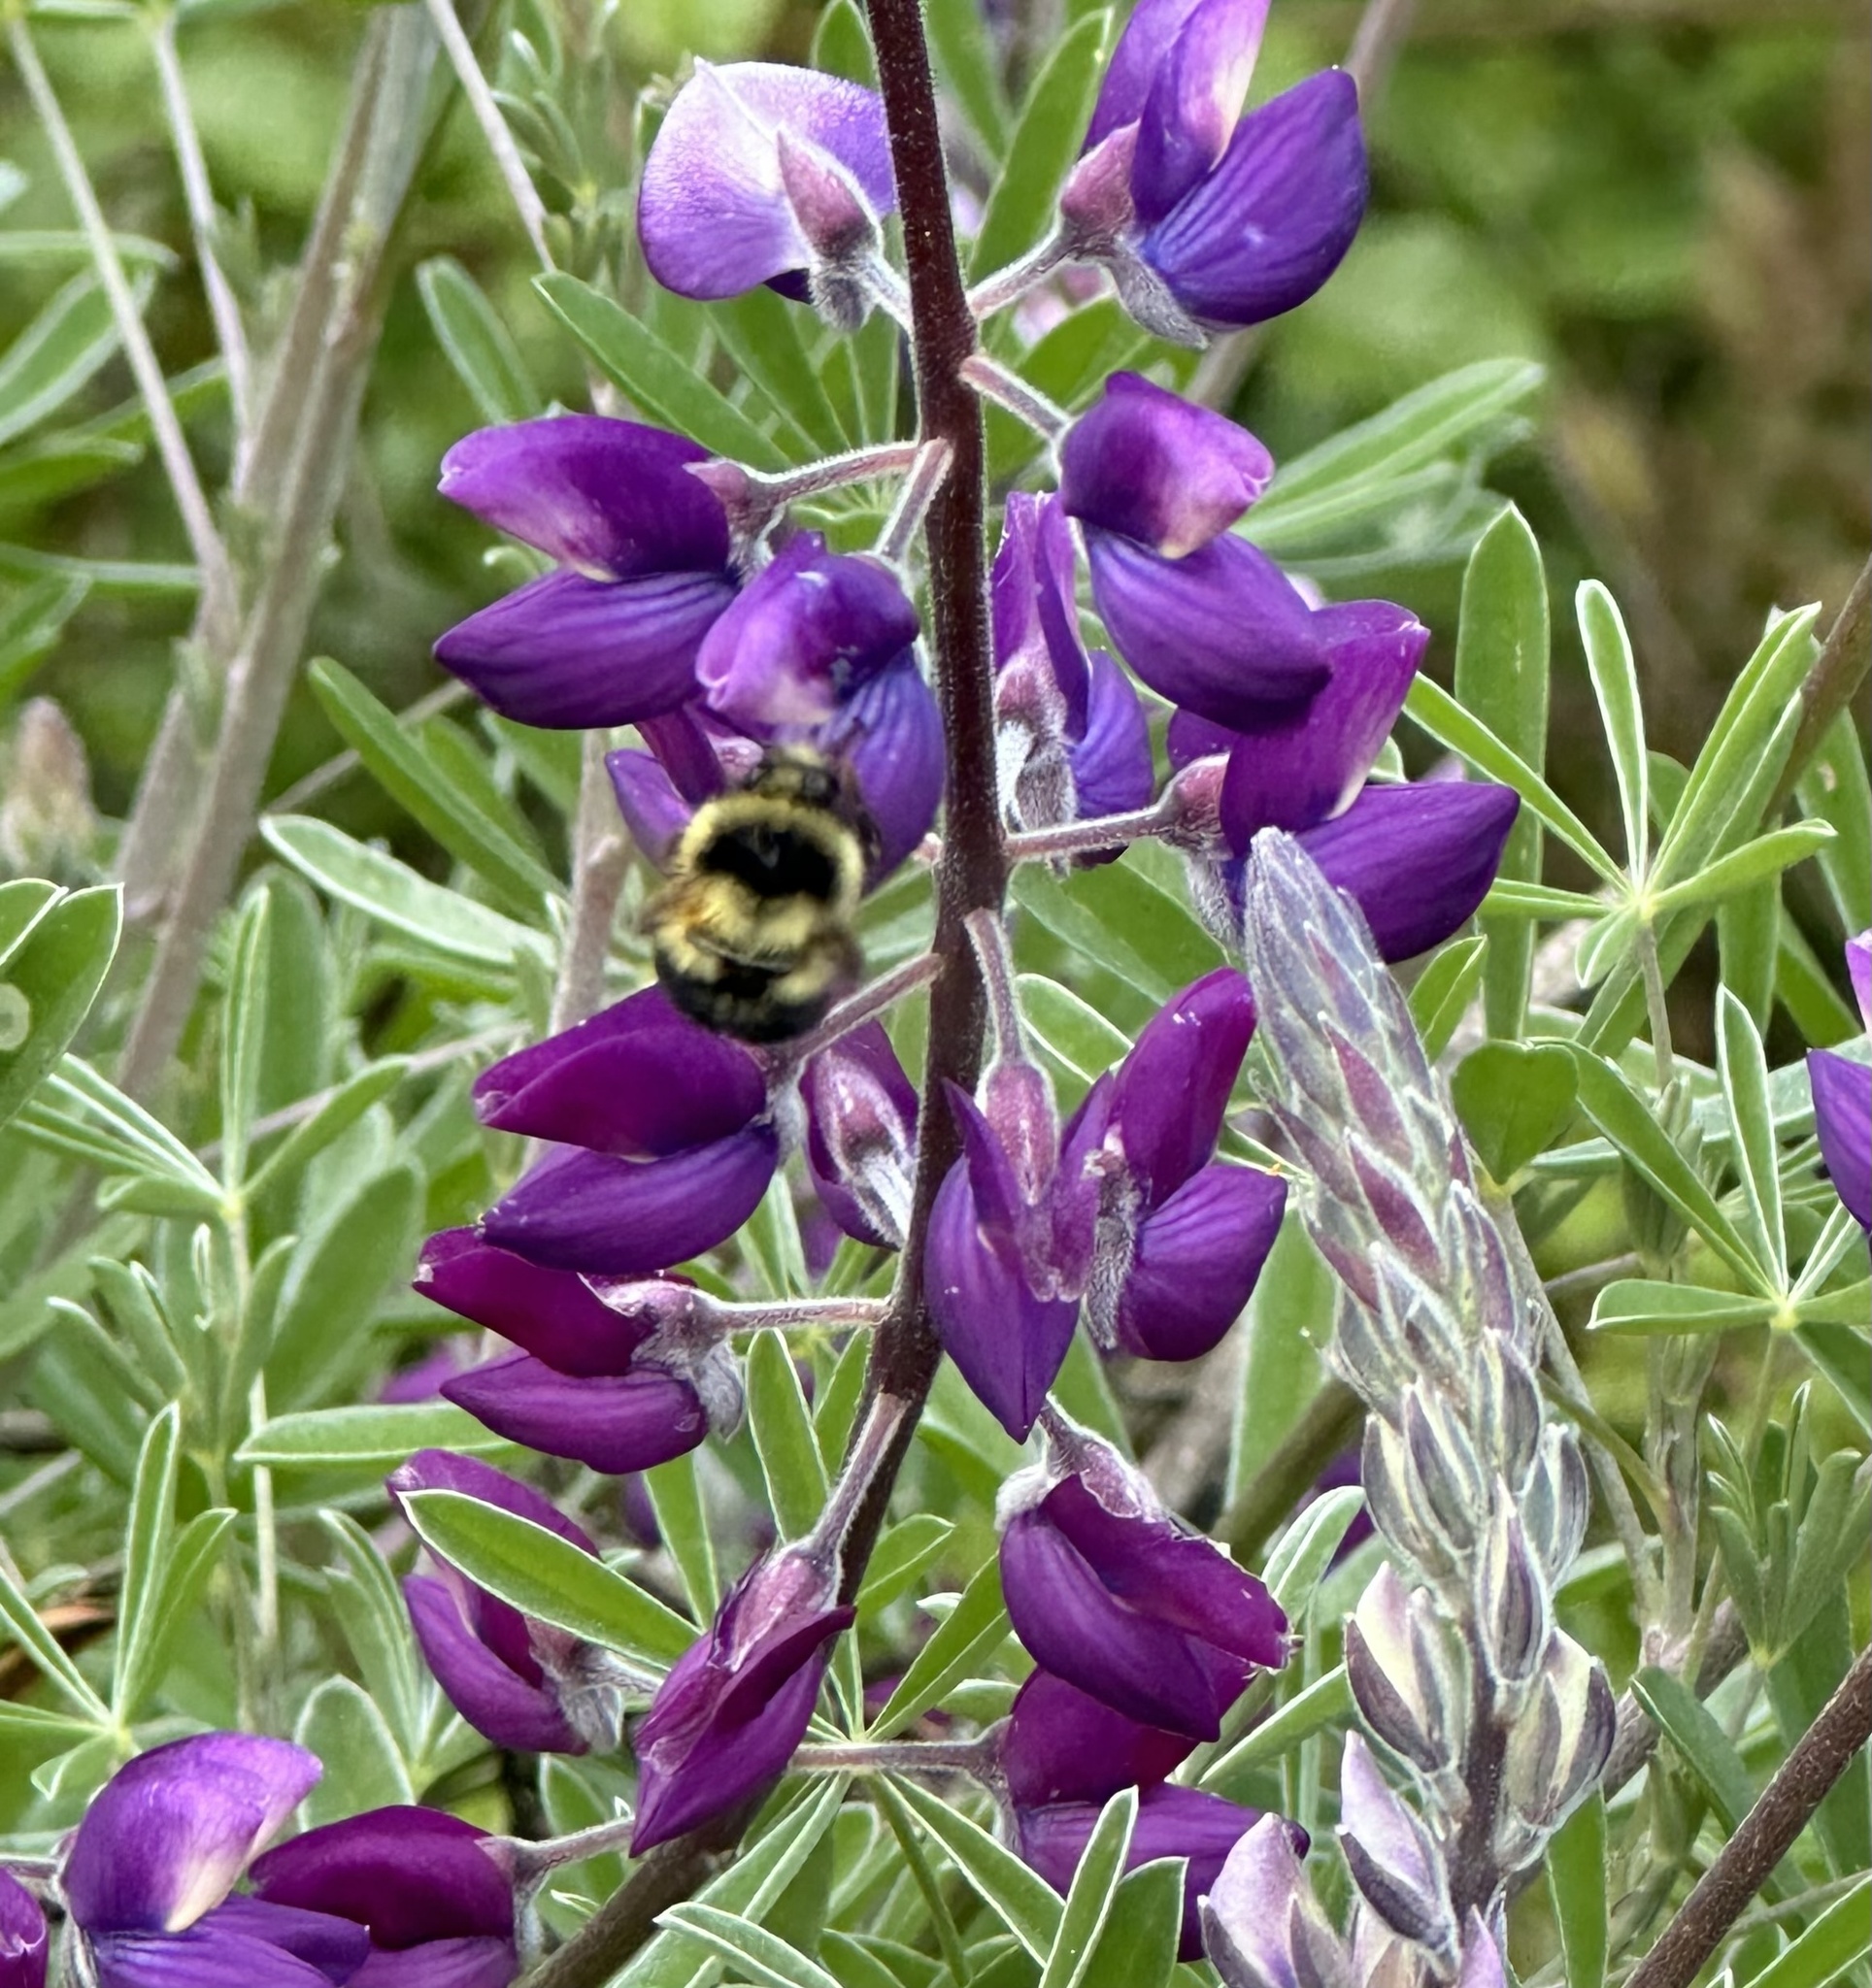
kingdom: Animalia
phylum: Arthropoda
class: Insecta
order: Hymenoptera
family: Apidae
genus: Bombus
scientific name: Bombus melanopygus
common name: Black tail bumble bee
